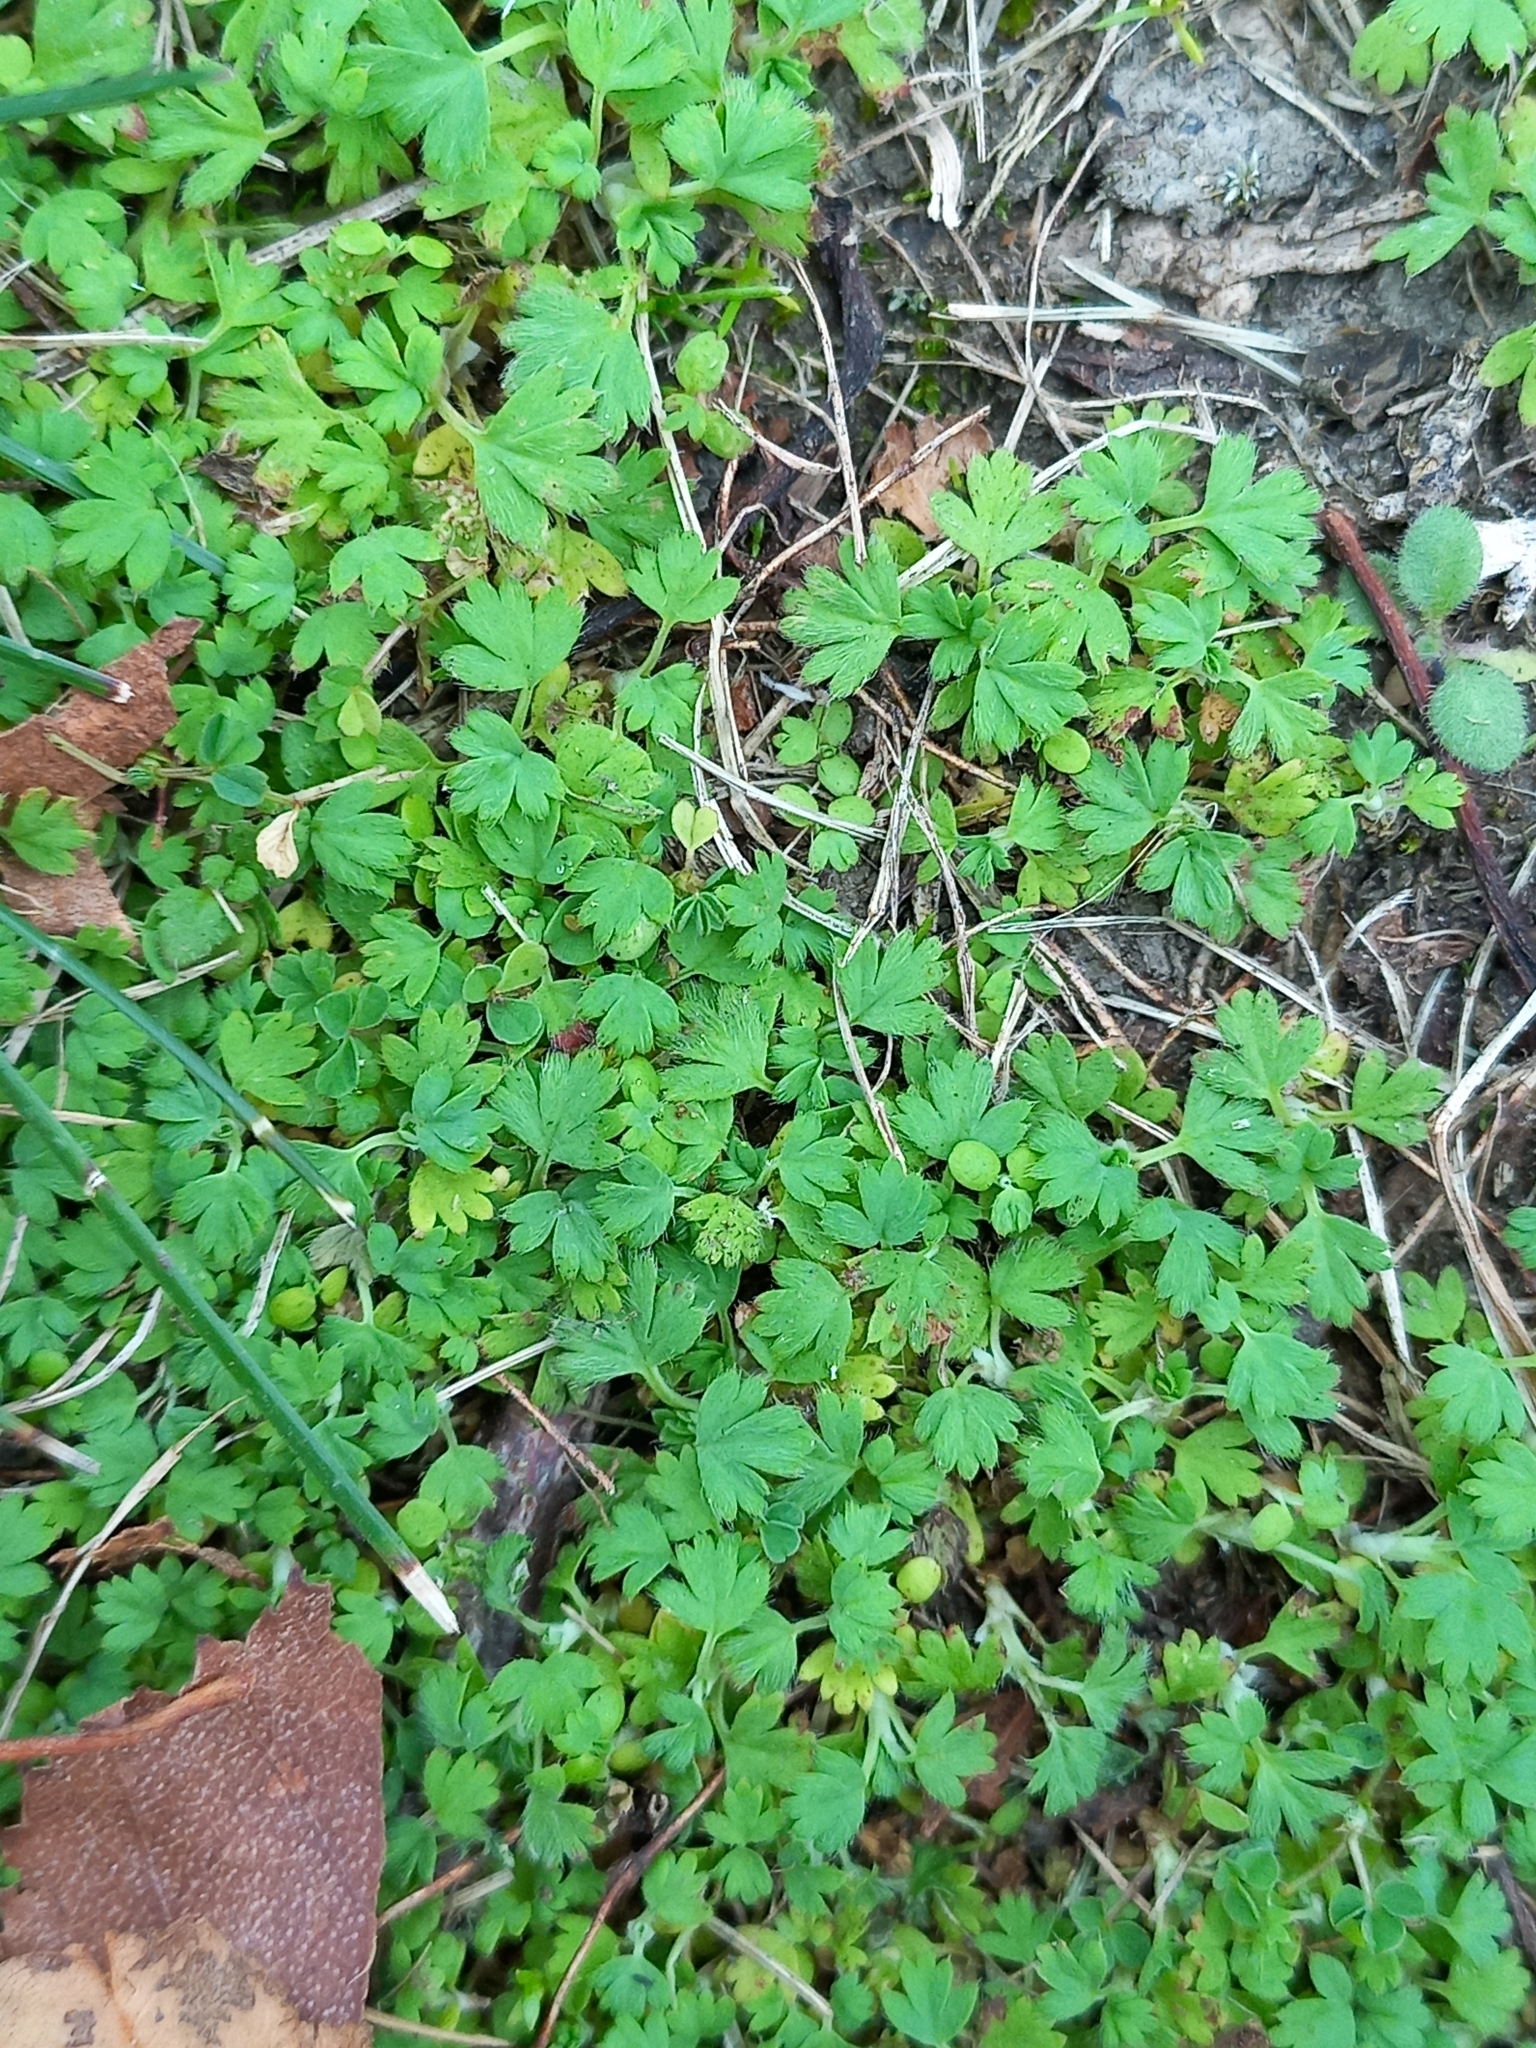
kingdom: Plantae
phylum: Tracheophyta
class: Magnoliopsida
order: Rosales
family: Rosaceae
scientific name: Rosaceae
